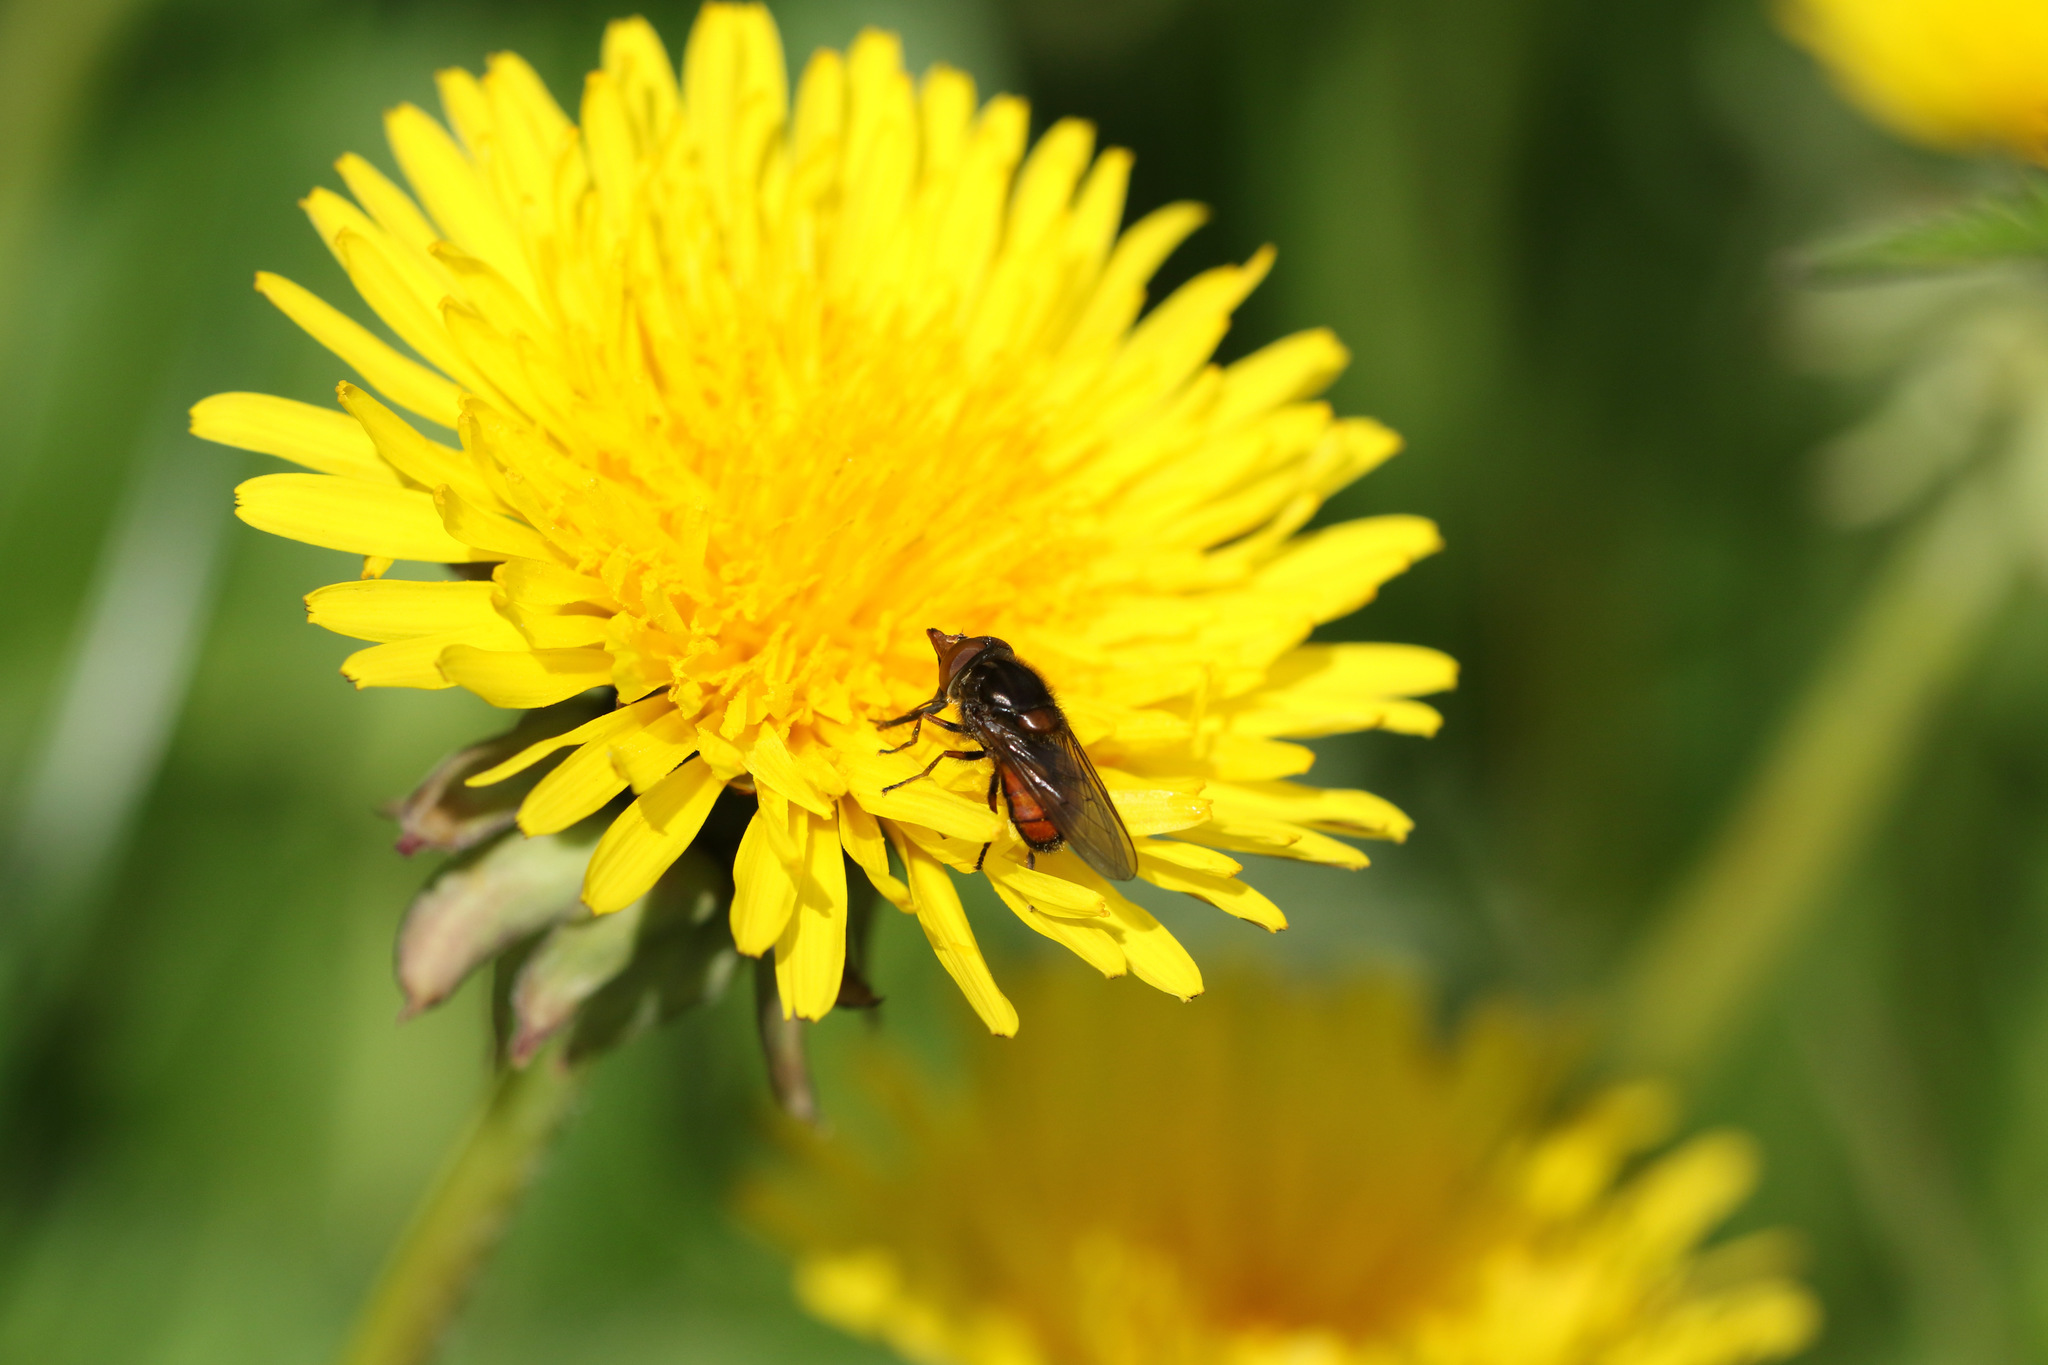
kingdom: Animalia
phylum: Arthropoda
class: Insecta
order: Diptera
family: Syrphidae
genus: Rhingia
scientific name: Rhingia campestris
